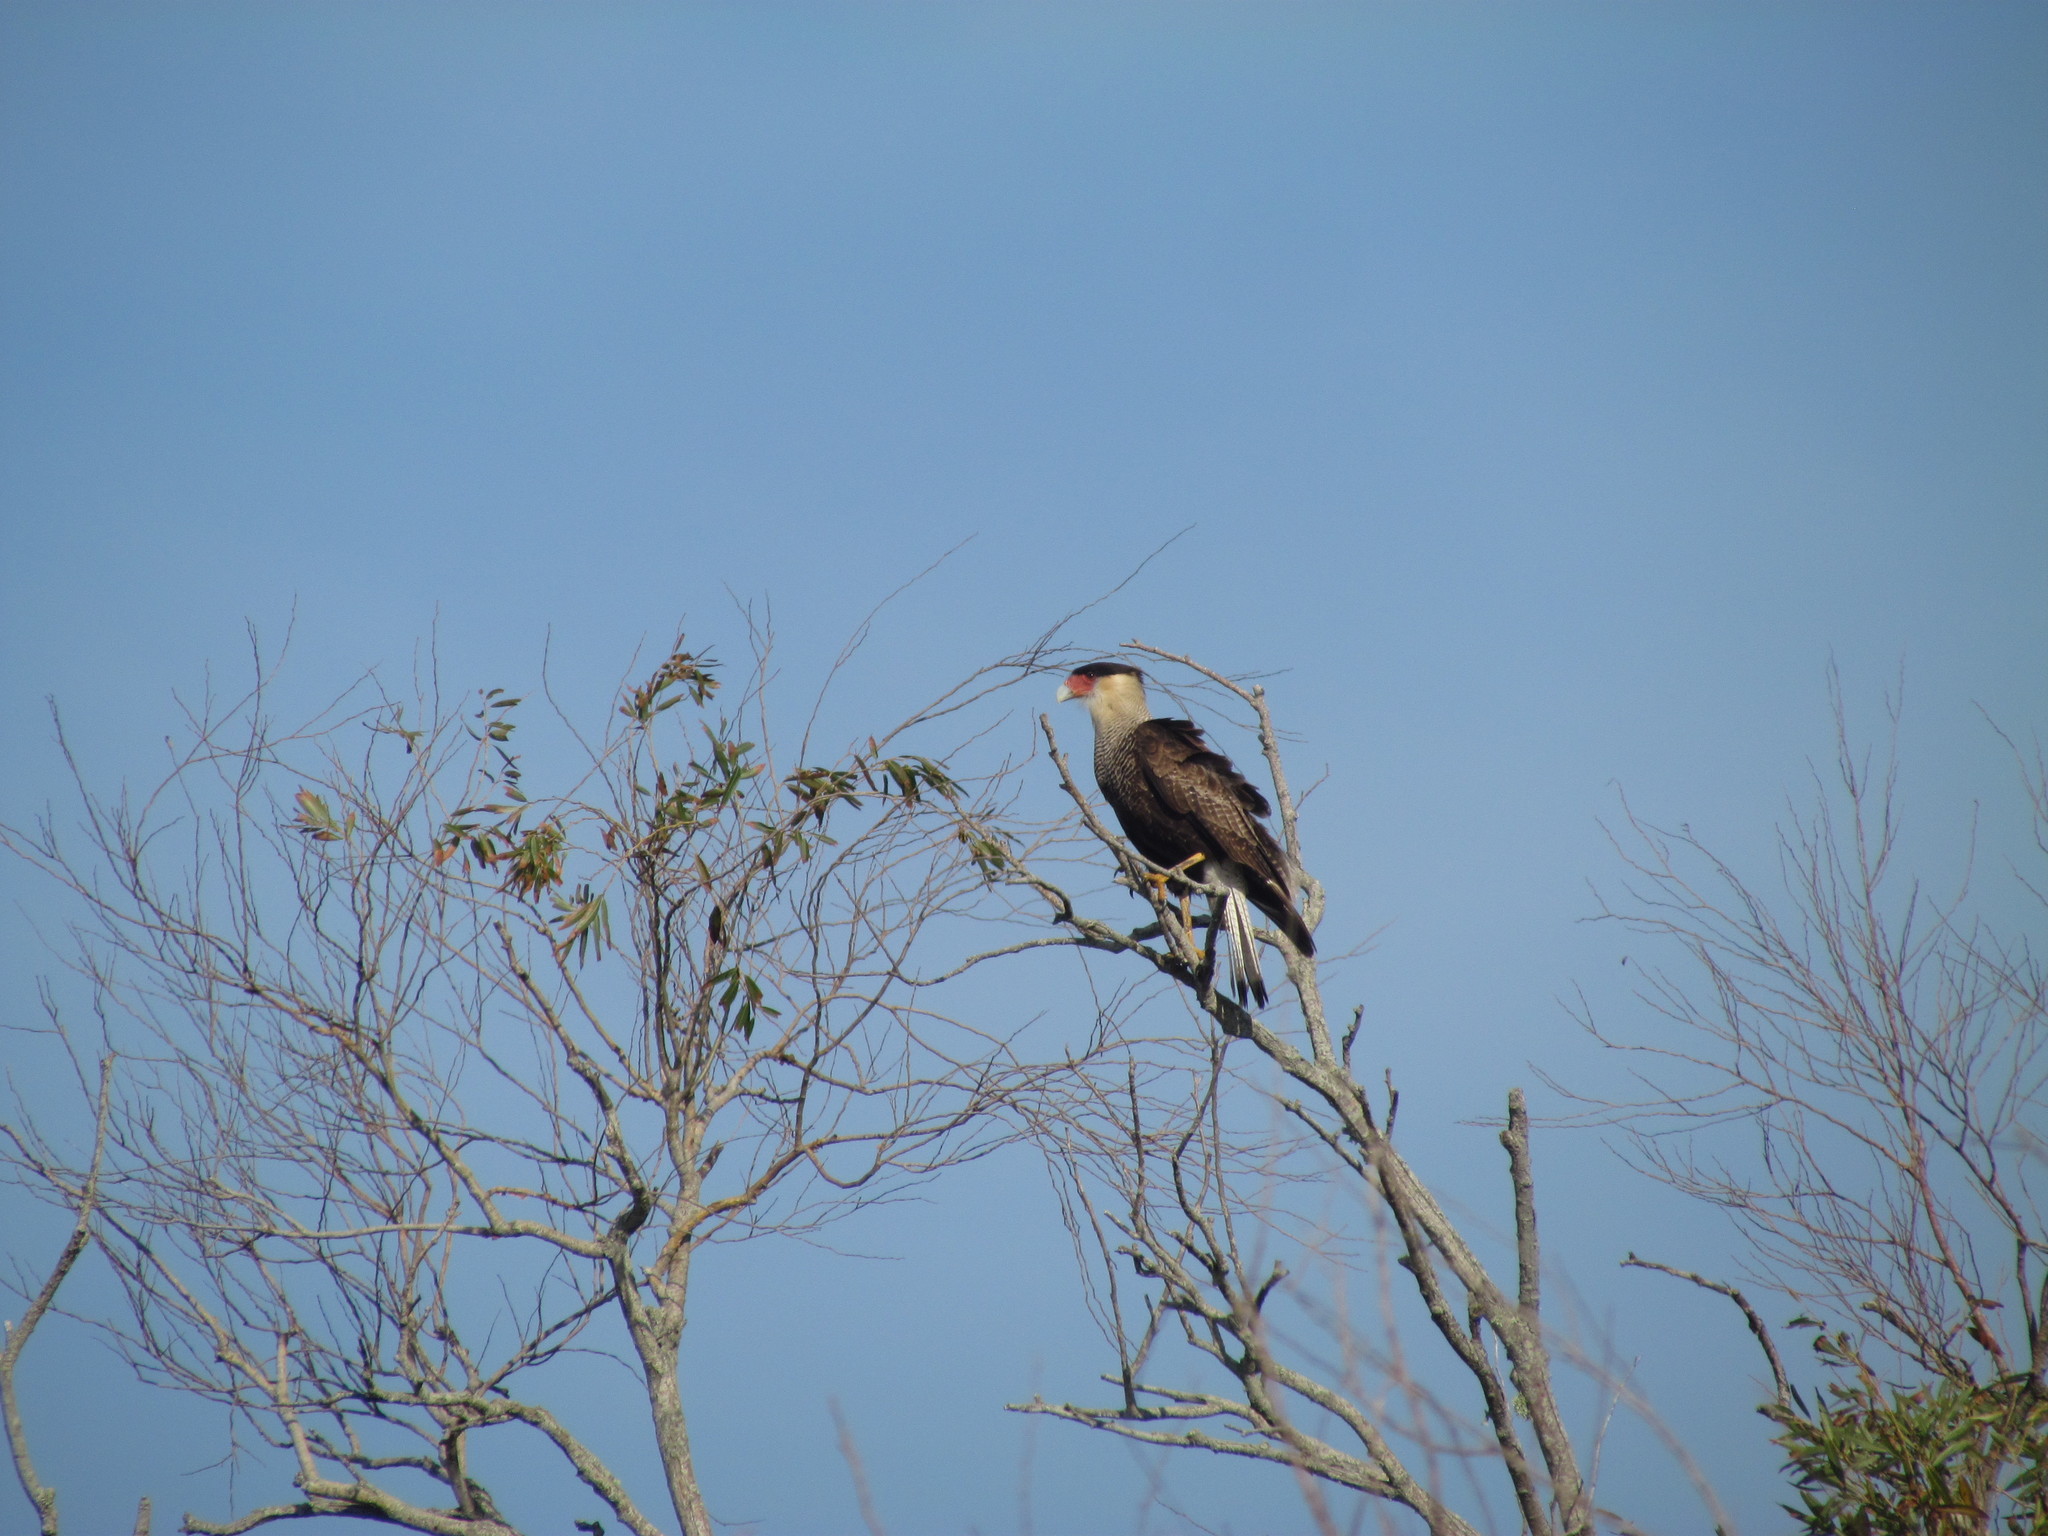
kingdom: Animalia
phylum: Chordata
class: Aves
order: Falconiformes
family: Falconidae
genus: Caracara
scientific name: Caracara plancus
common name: Southern caracara
